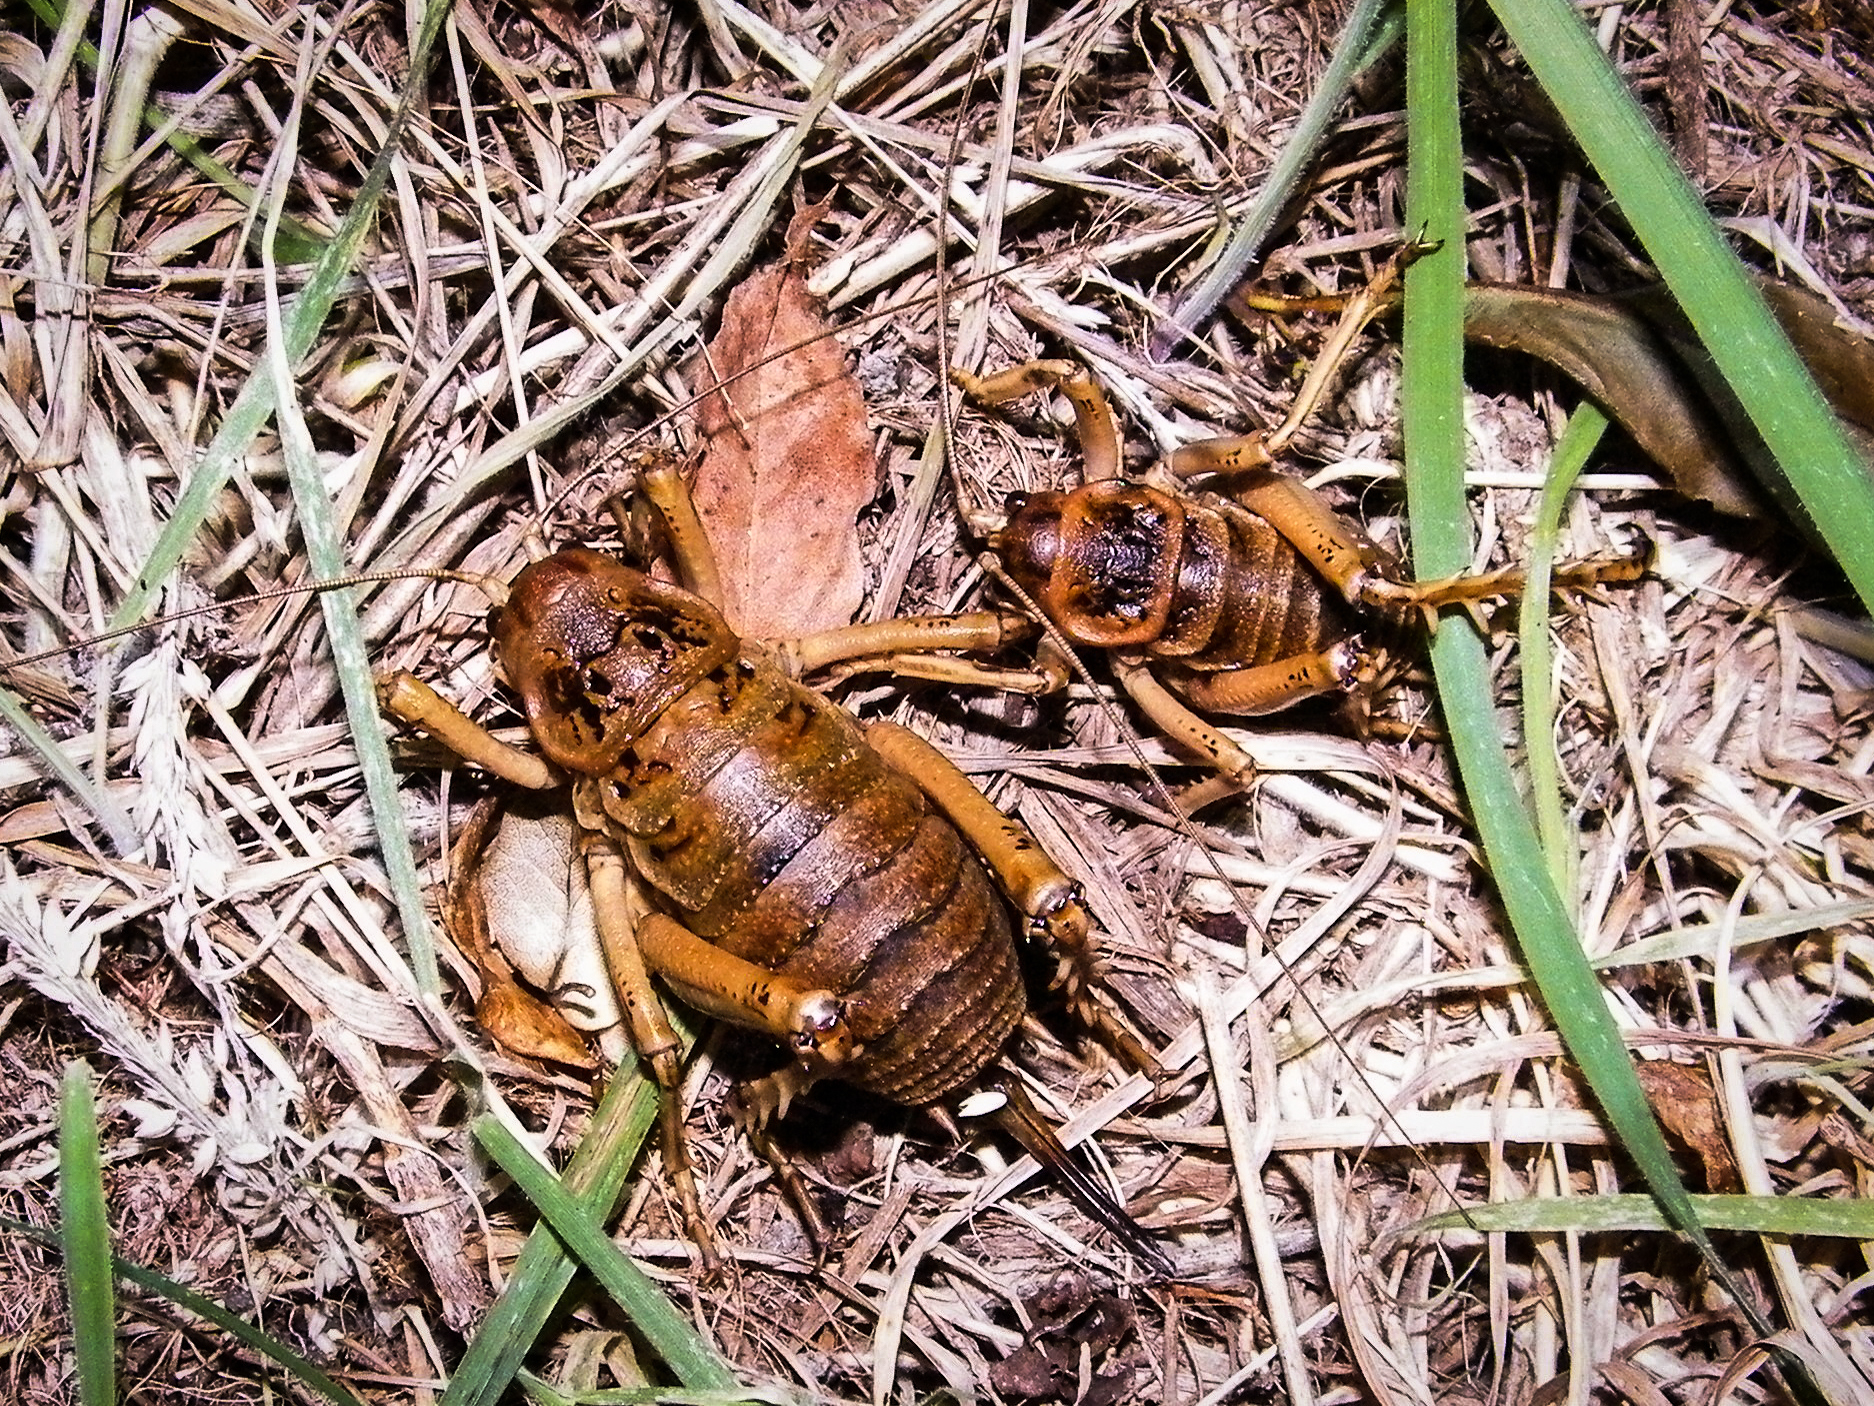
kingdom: Animalia
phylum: Arthropoda
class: Insecta
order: Orthoptera
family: Anostostomatidae
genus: Deinacrida
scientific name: Deinacrida rugosa
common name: Stephens island weta
